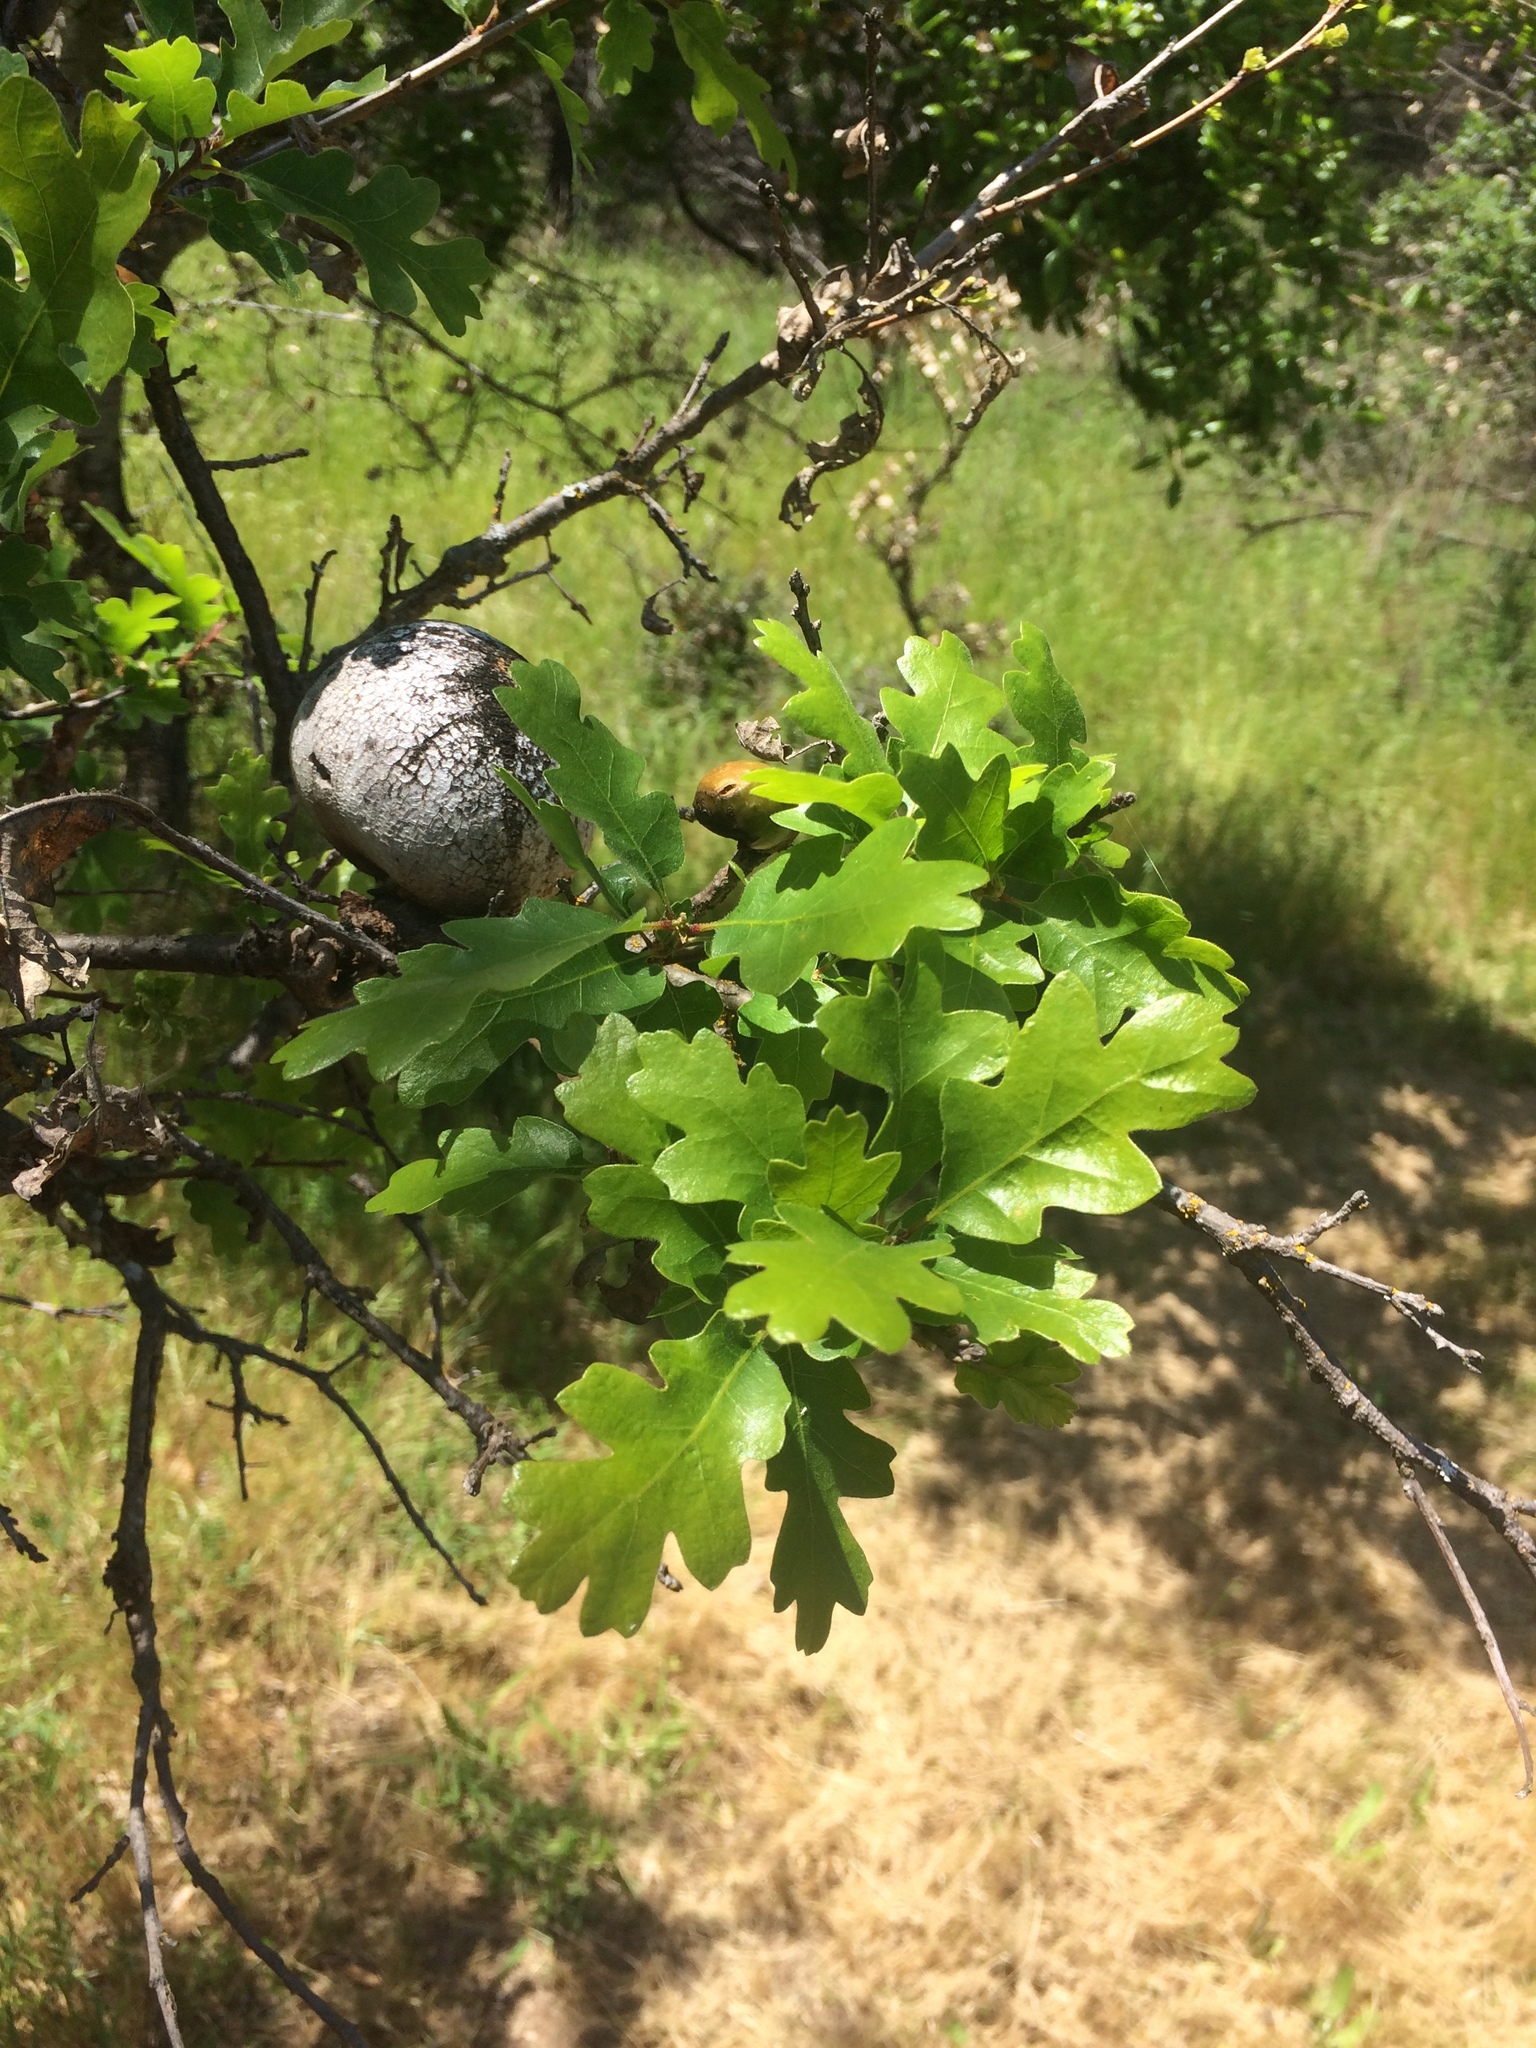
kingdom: Animalia
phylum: Arthropoda
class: Insecta
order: Hymenoptera
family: Cynipidae
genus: Andricus
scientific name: Andricus quercuscalifornicus
